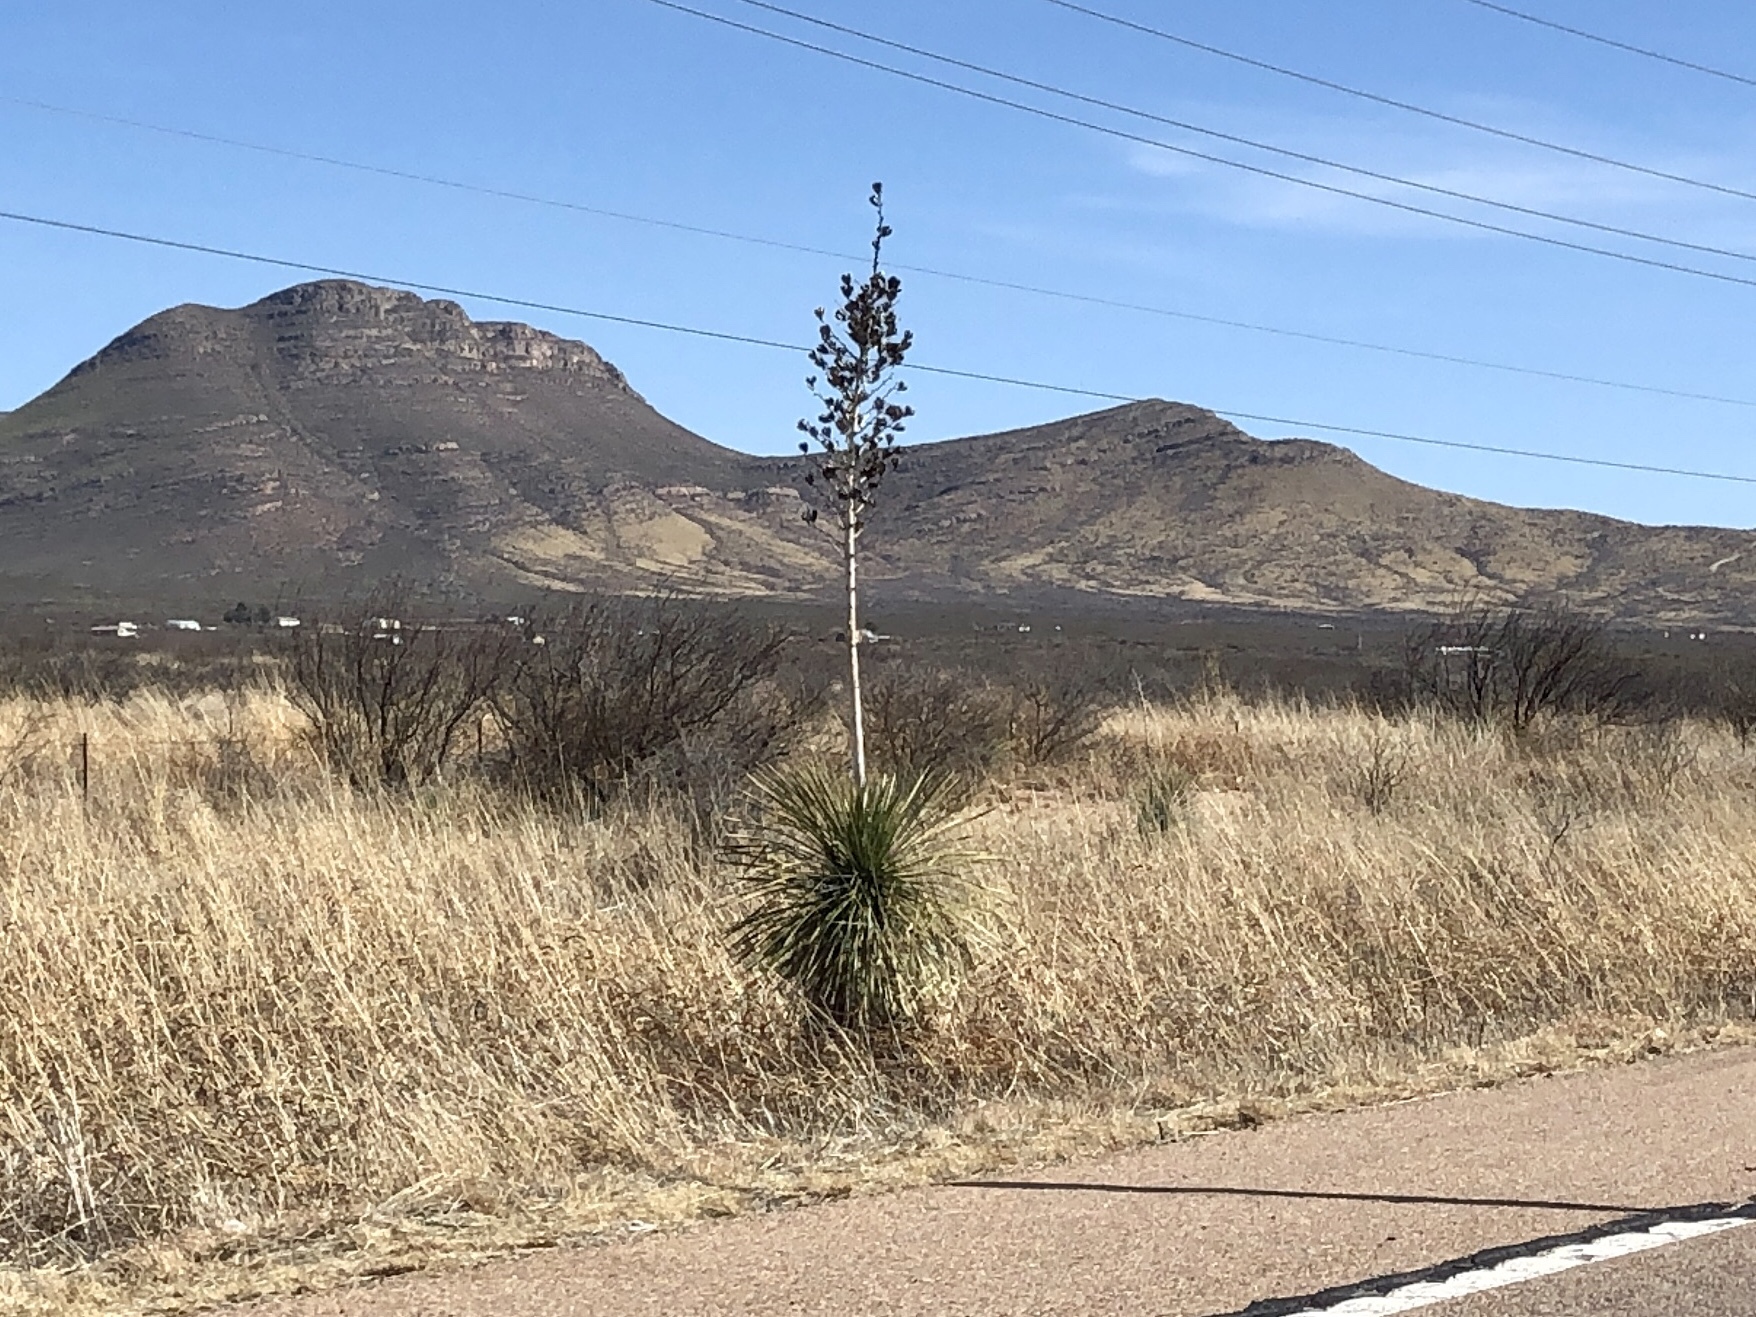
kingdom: Plantae
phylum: Tracheophyta
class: Liliopsida
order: Asparagales
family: Asparagaceae
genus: Yucca
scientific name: Yucca elata
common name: Palmella
